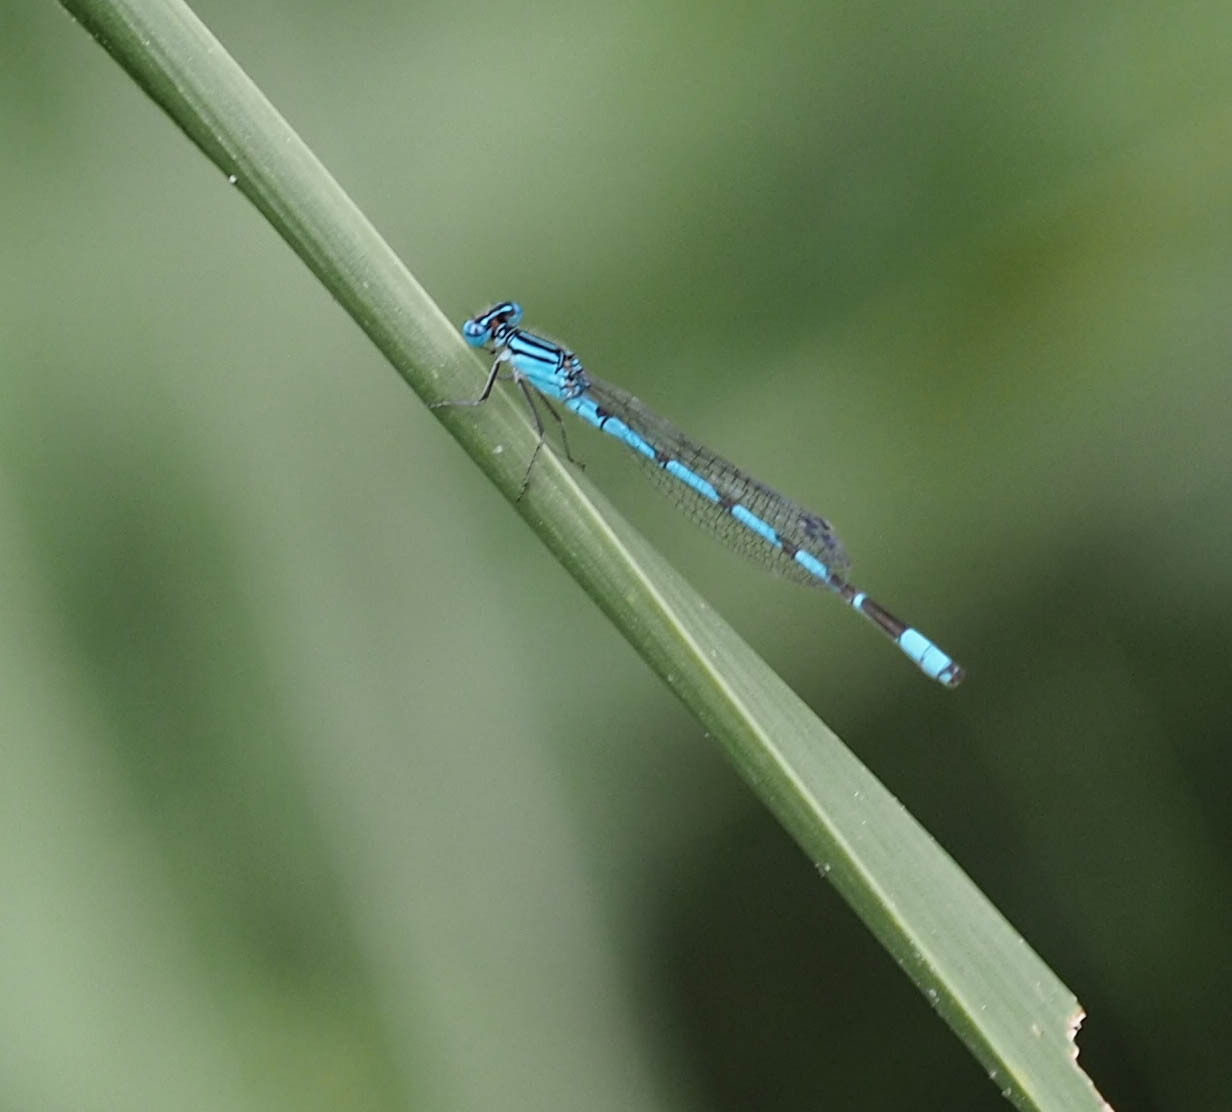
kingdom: Animalia
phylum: Arthropoda
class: Insecta
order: Odonata
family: Coenagrionidae
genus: Enallagma
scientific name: Enallagma durum
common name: Big bluet
